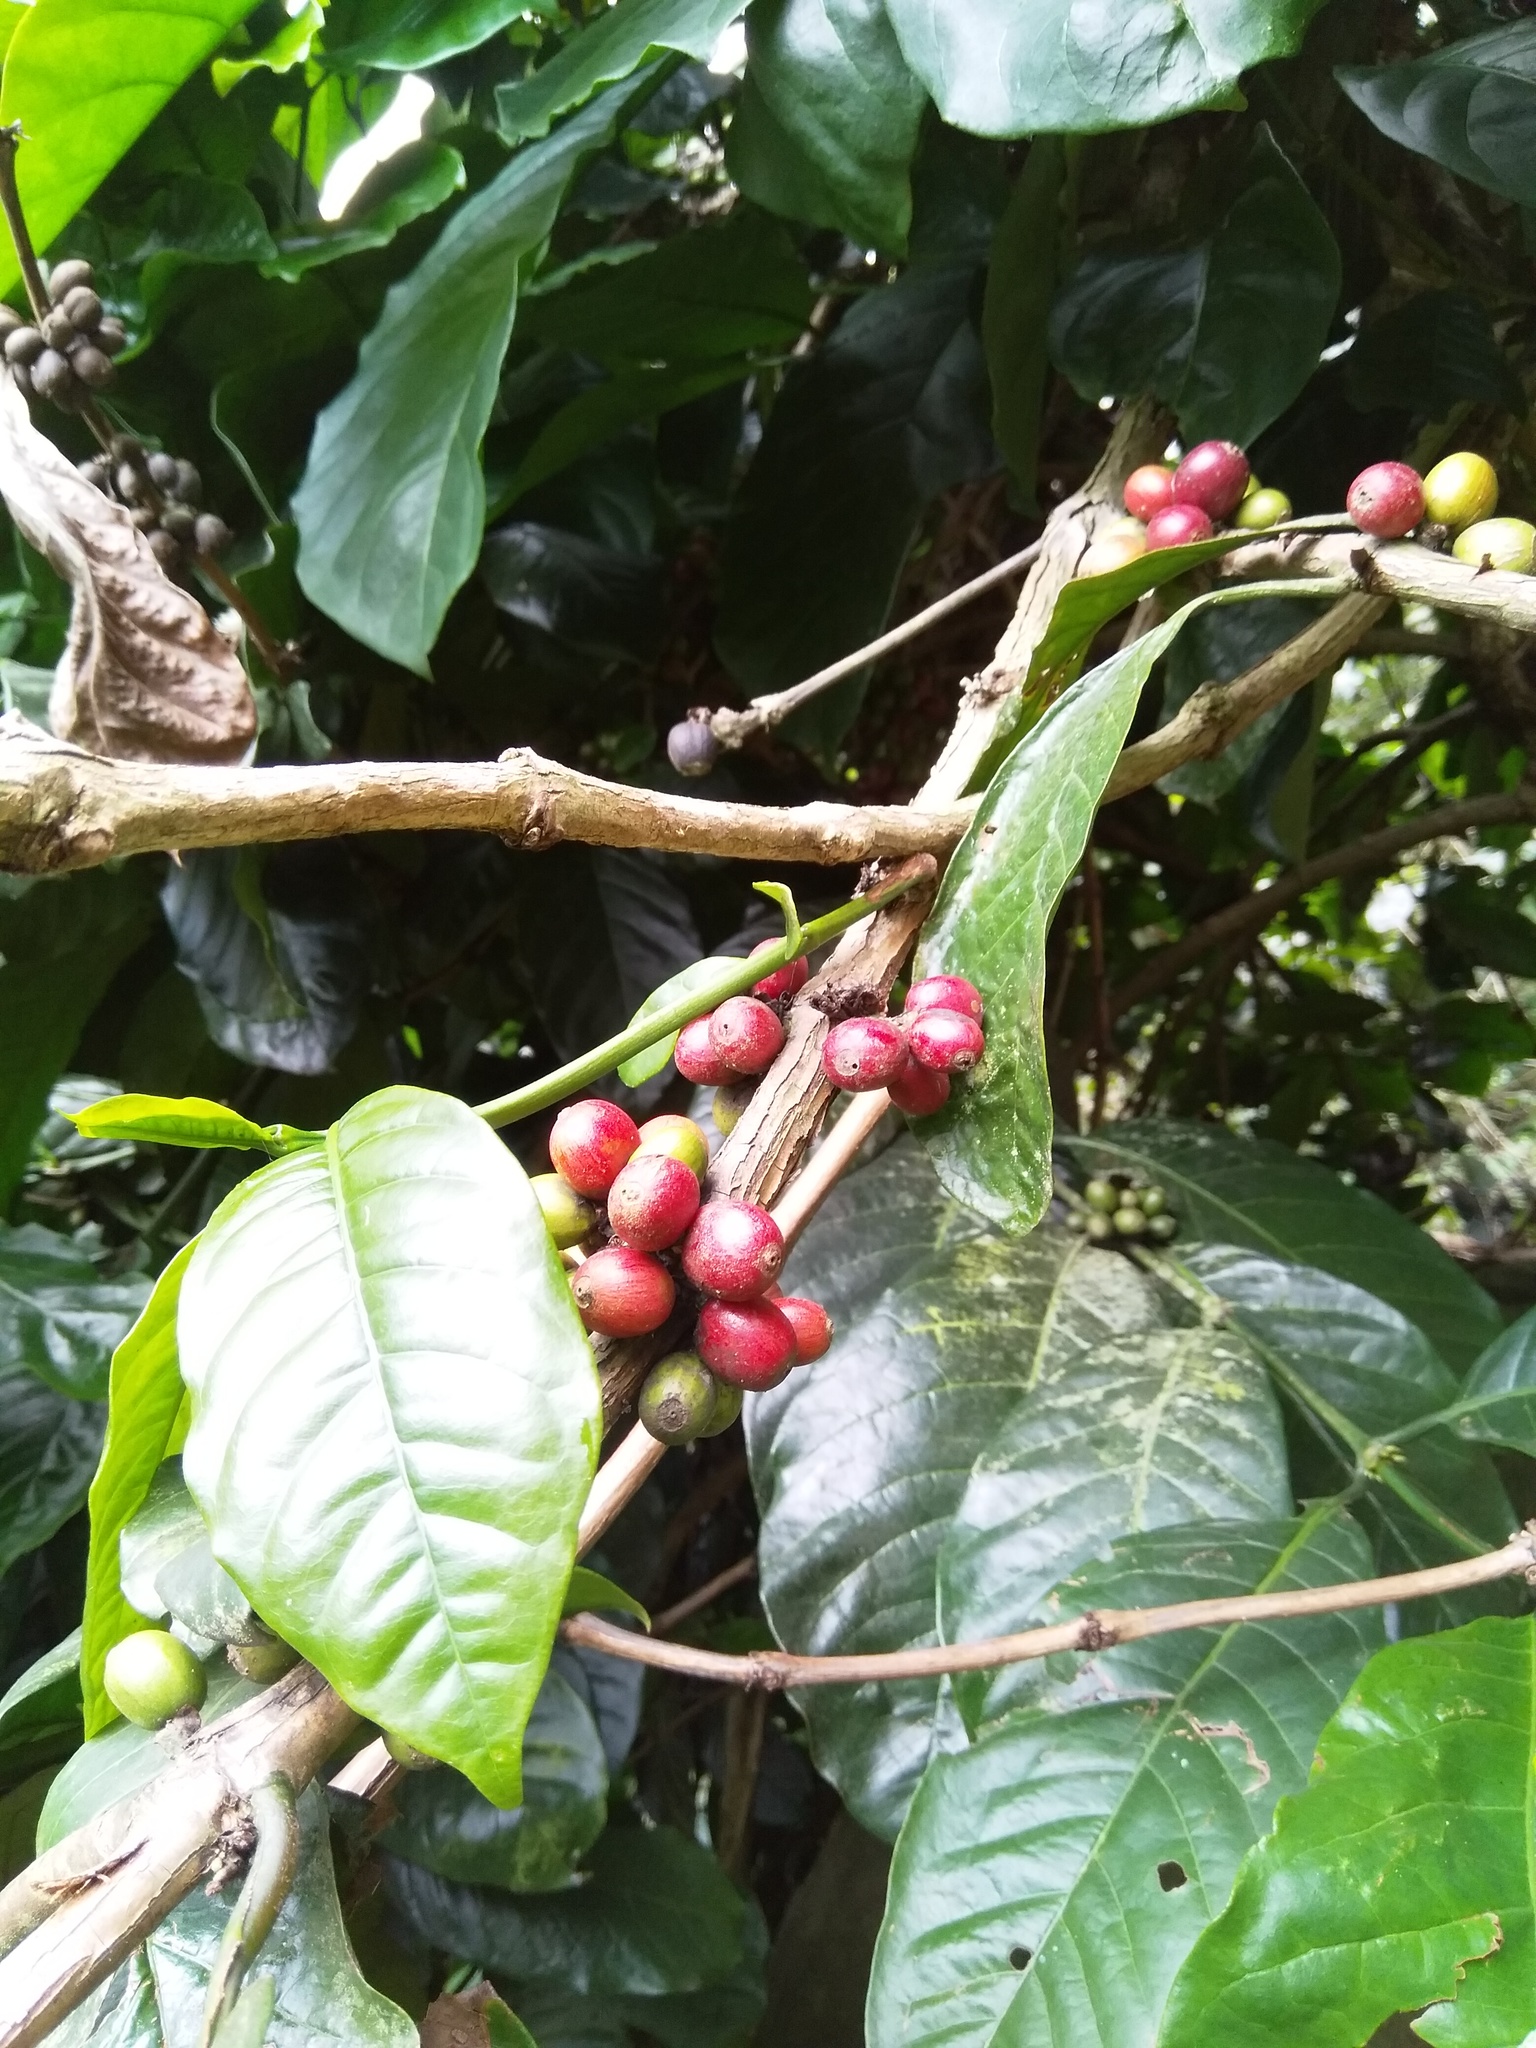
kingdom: Plantae
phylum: Tracheophyta
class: Magnoliopsida
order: Gentianales
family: Rubiaceae
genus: Coffea
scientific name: Coffea arabica
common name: Coffee
